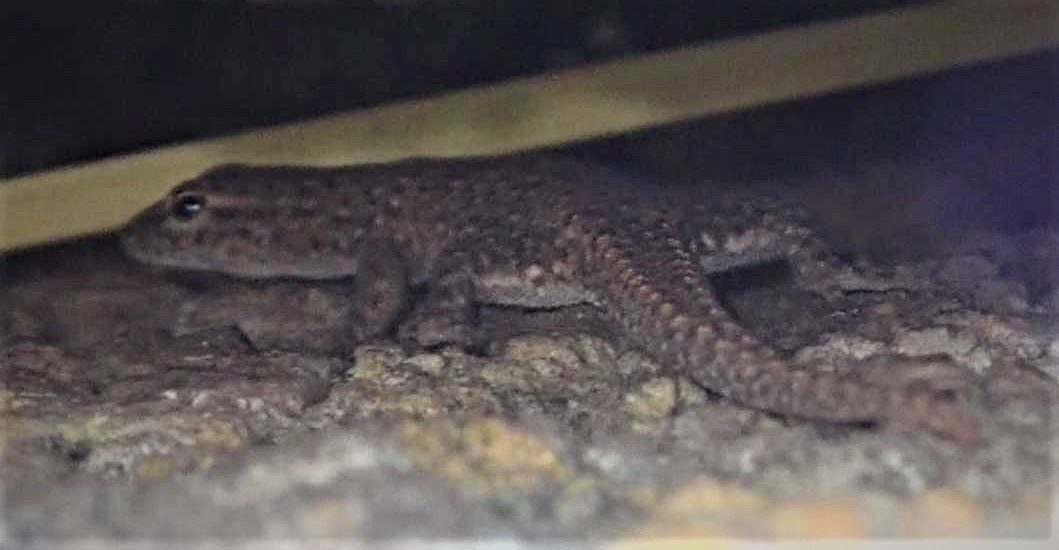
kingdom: Animalia
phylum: Chordata
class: Squamata
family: Gekkonidae
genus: Lygodactylus
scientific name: Lygodactylus ocellatus
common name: Spotted dwarf gecko
